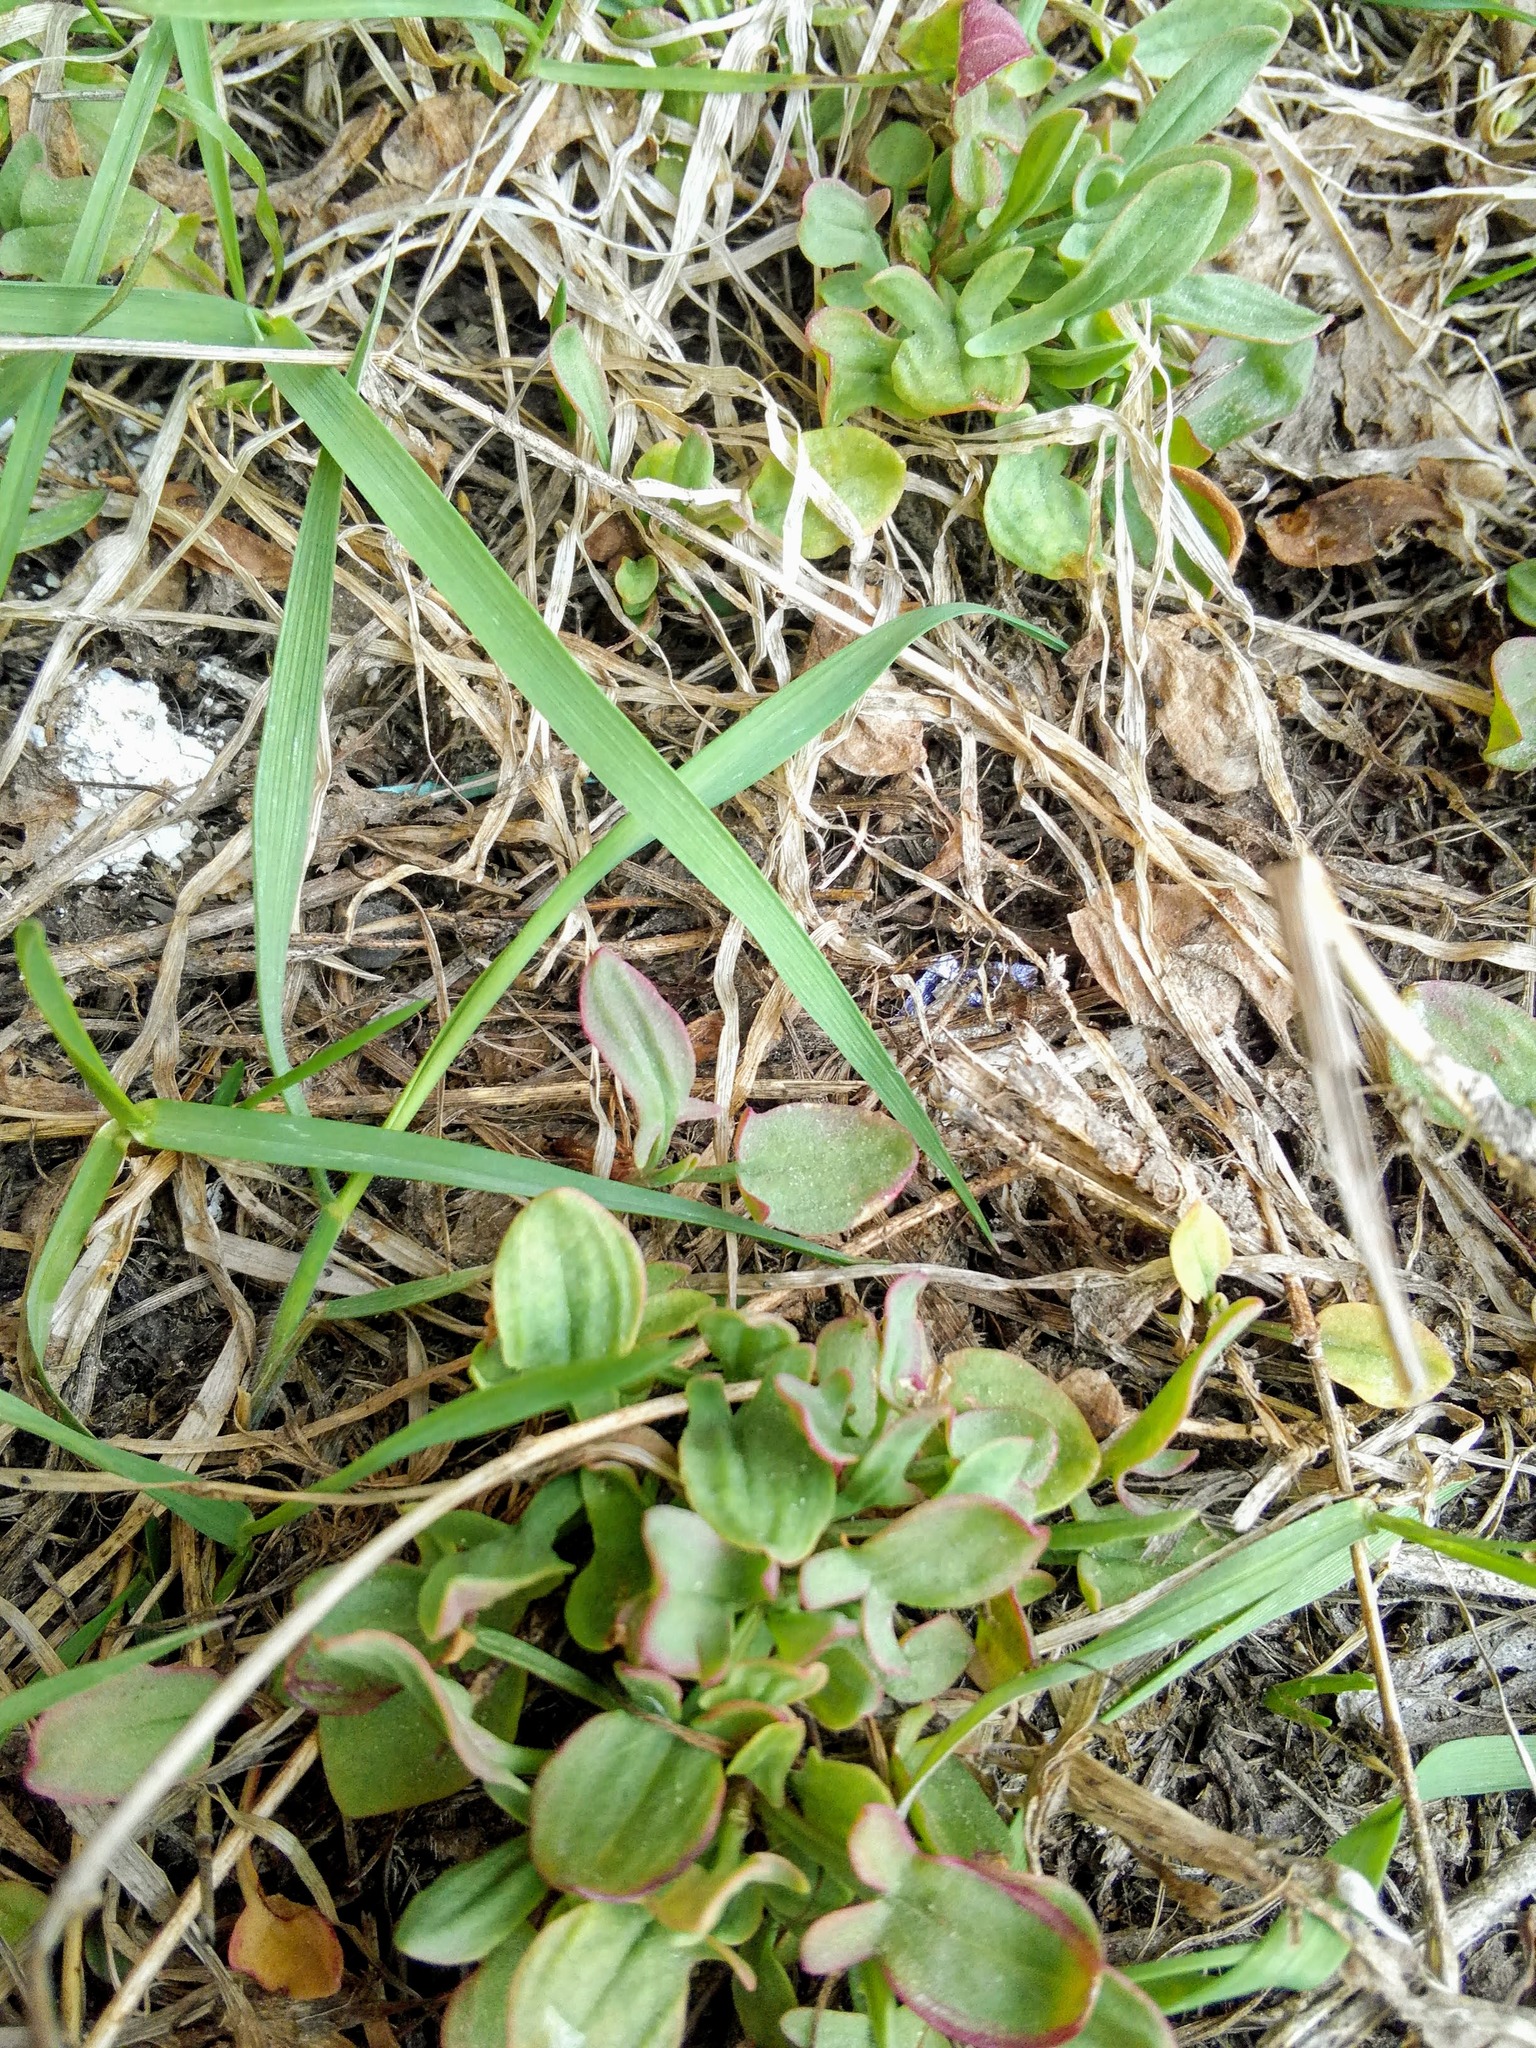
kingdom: Plantae
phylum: Tracheophyta
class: Magnoliopsida
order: Caryophyllales
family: Polygonaceae
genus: Rumex
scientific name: Rumex acetosella
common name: Common sheep sorrel
